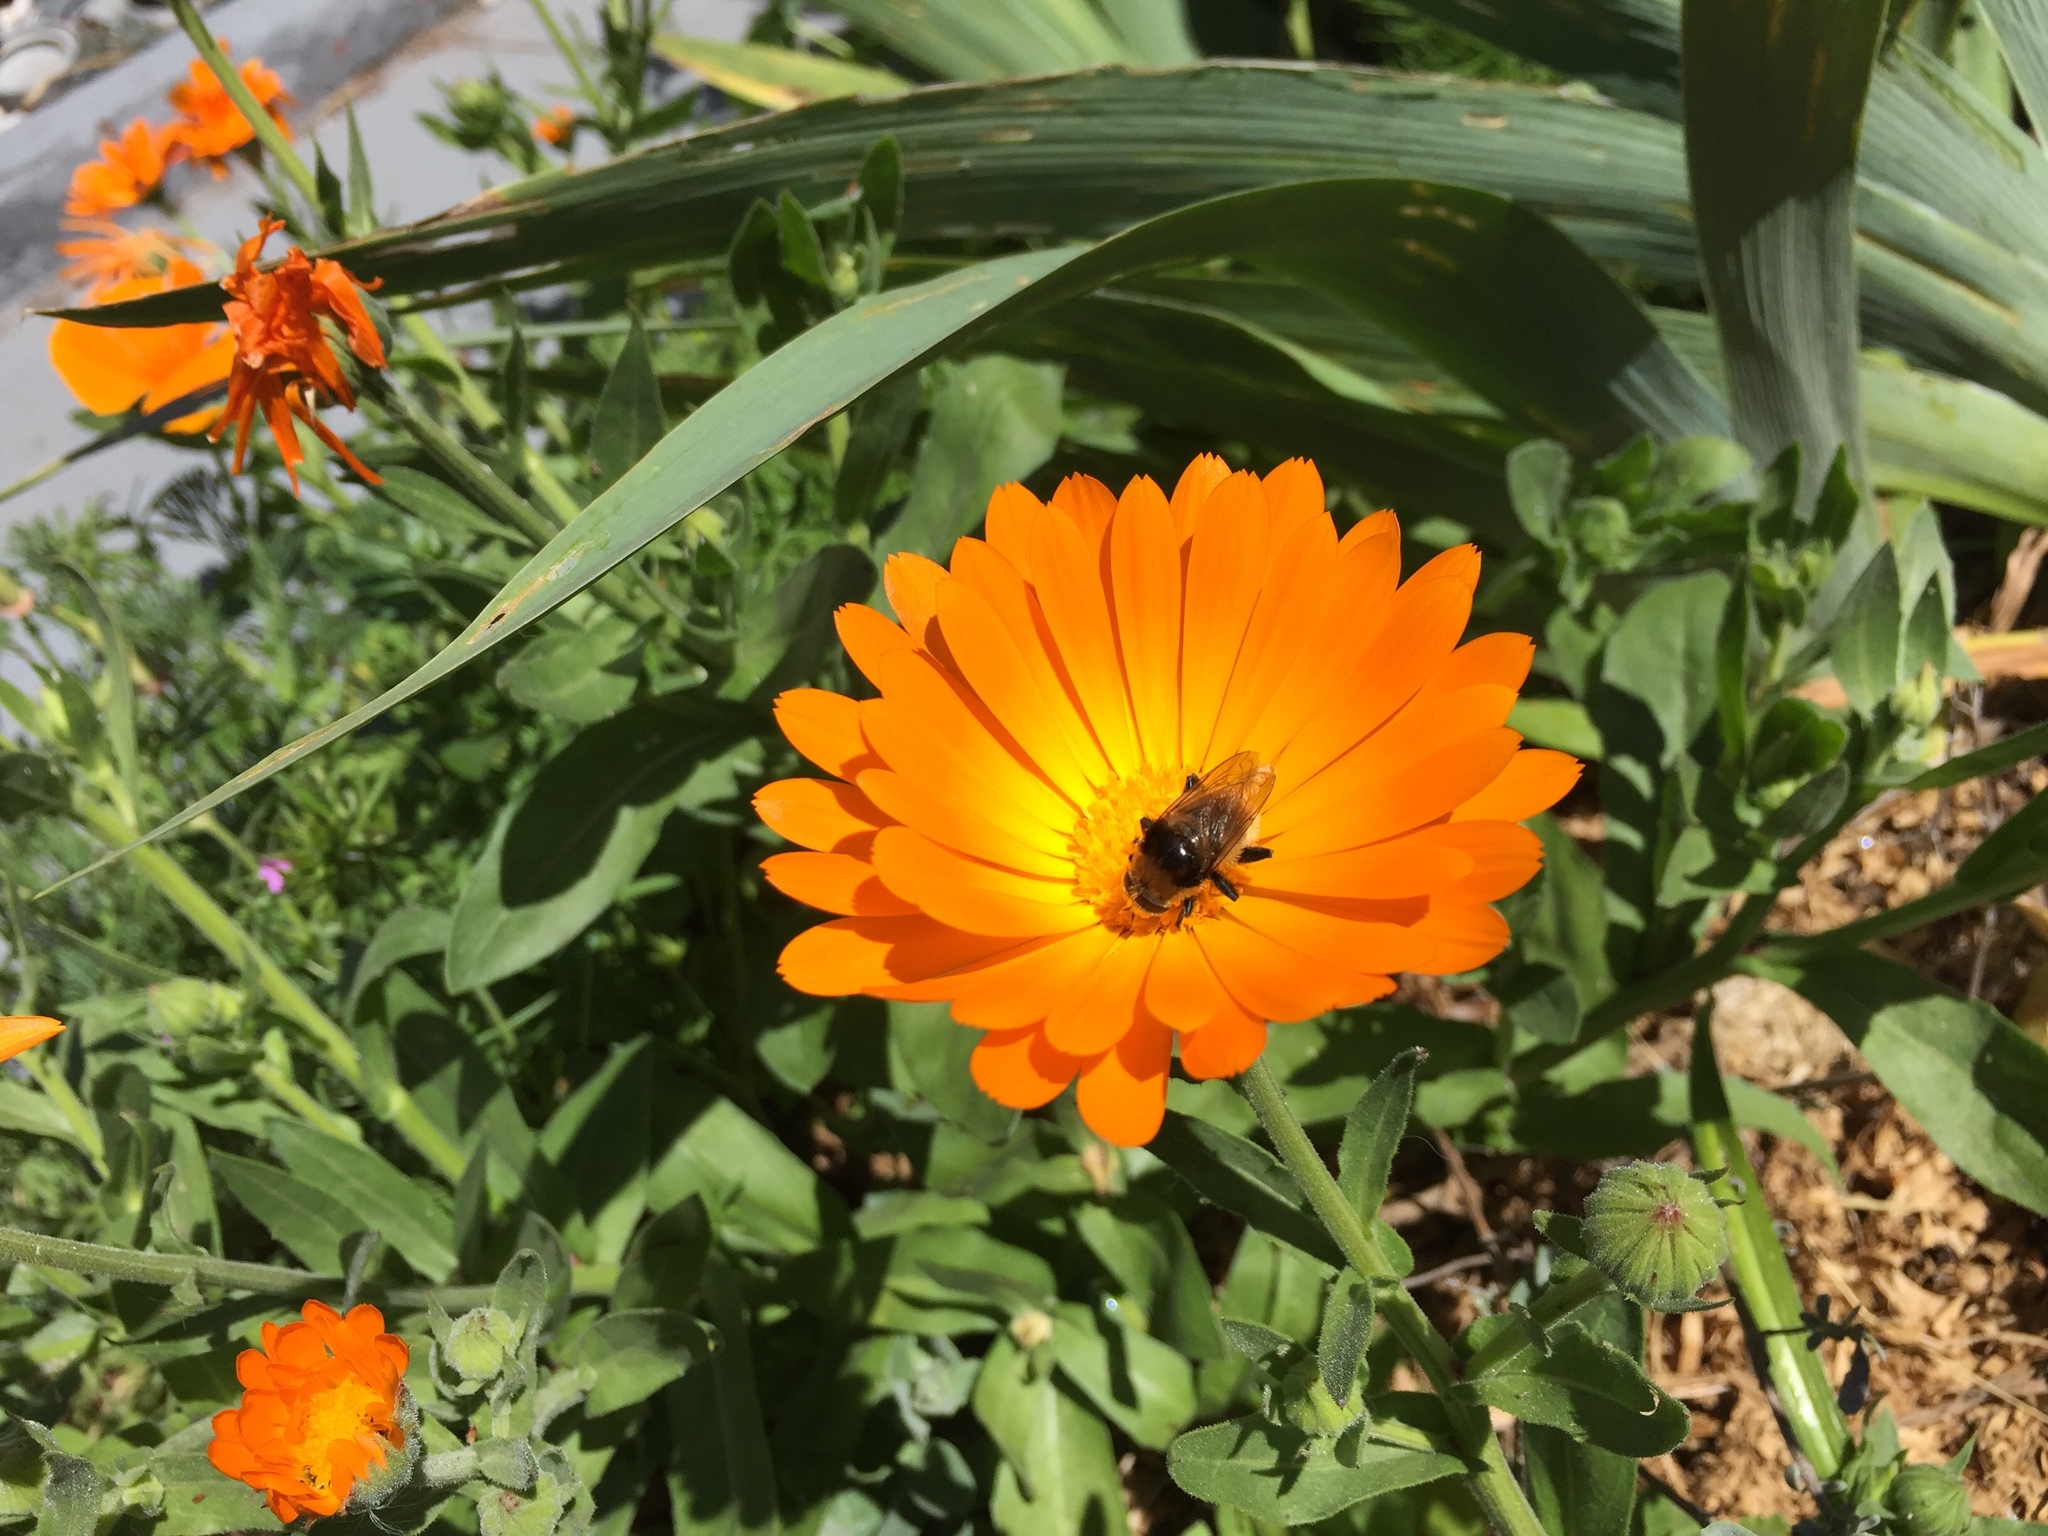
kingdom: Animalia
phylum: Arthropoda
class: Insecta
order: Diptera
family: Syrphidae
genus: Merodon
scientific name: Merodon equestris
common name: Greater bulb-fly
